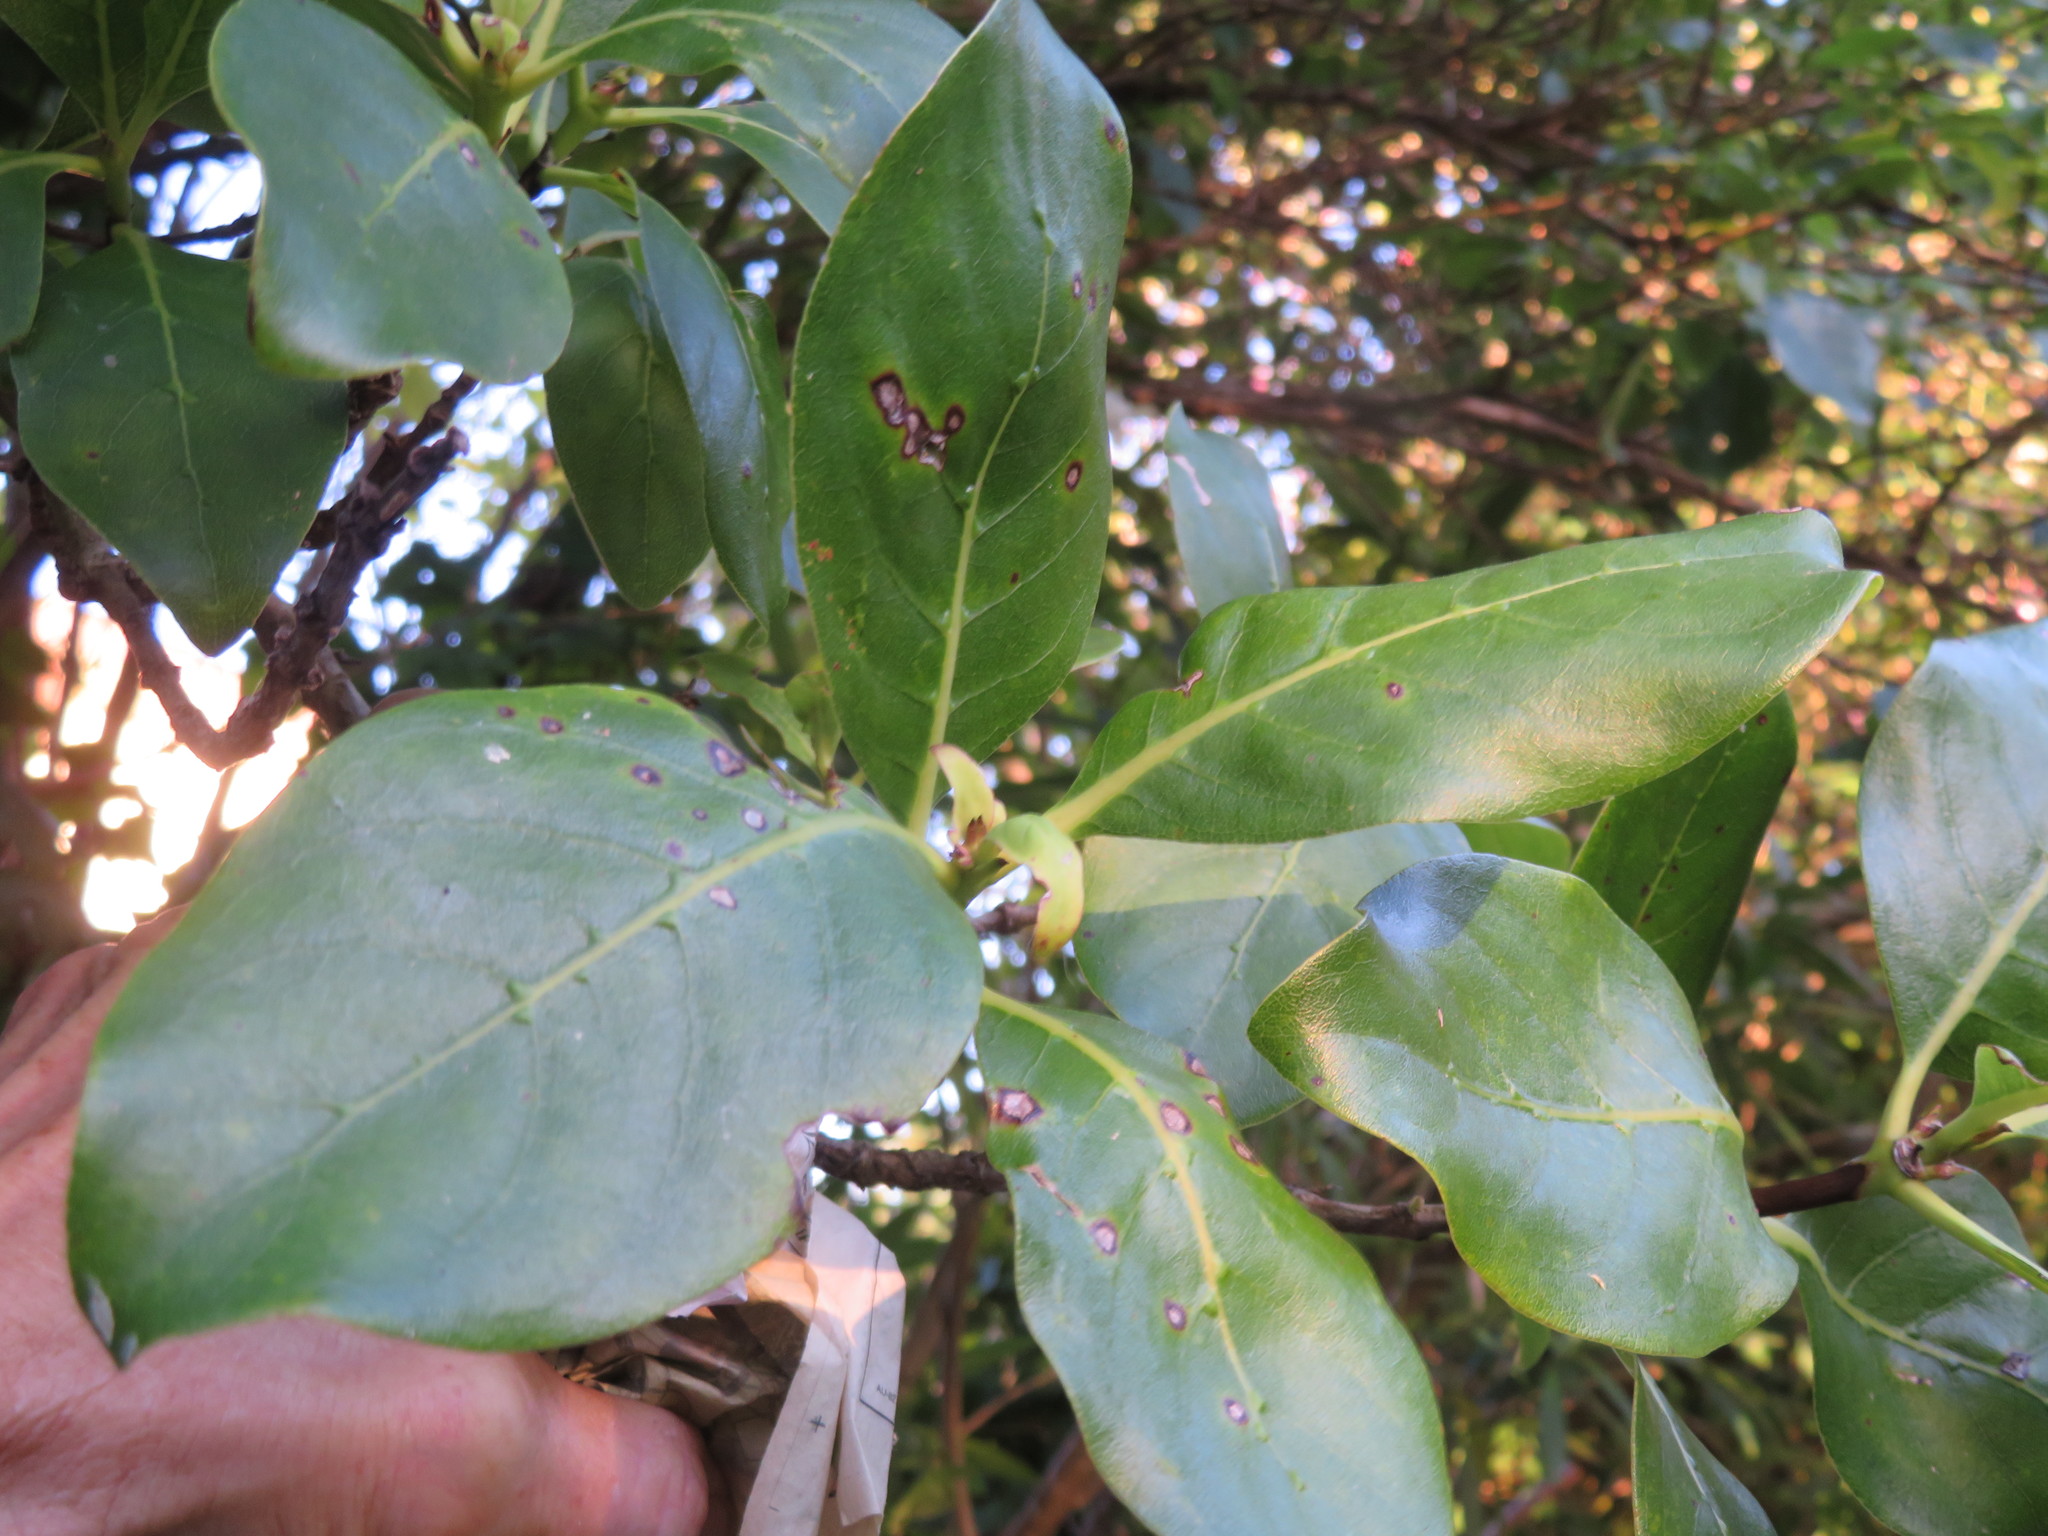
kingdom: Plantae
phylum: Tracheophyta
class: Magnoliopsida
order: Gentianales
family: Rubiaceae
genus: Coprosma
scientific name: Coprosma macrocarpa
